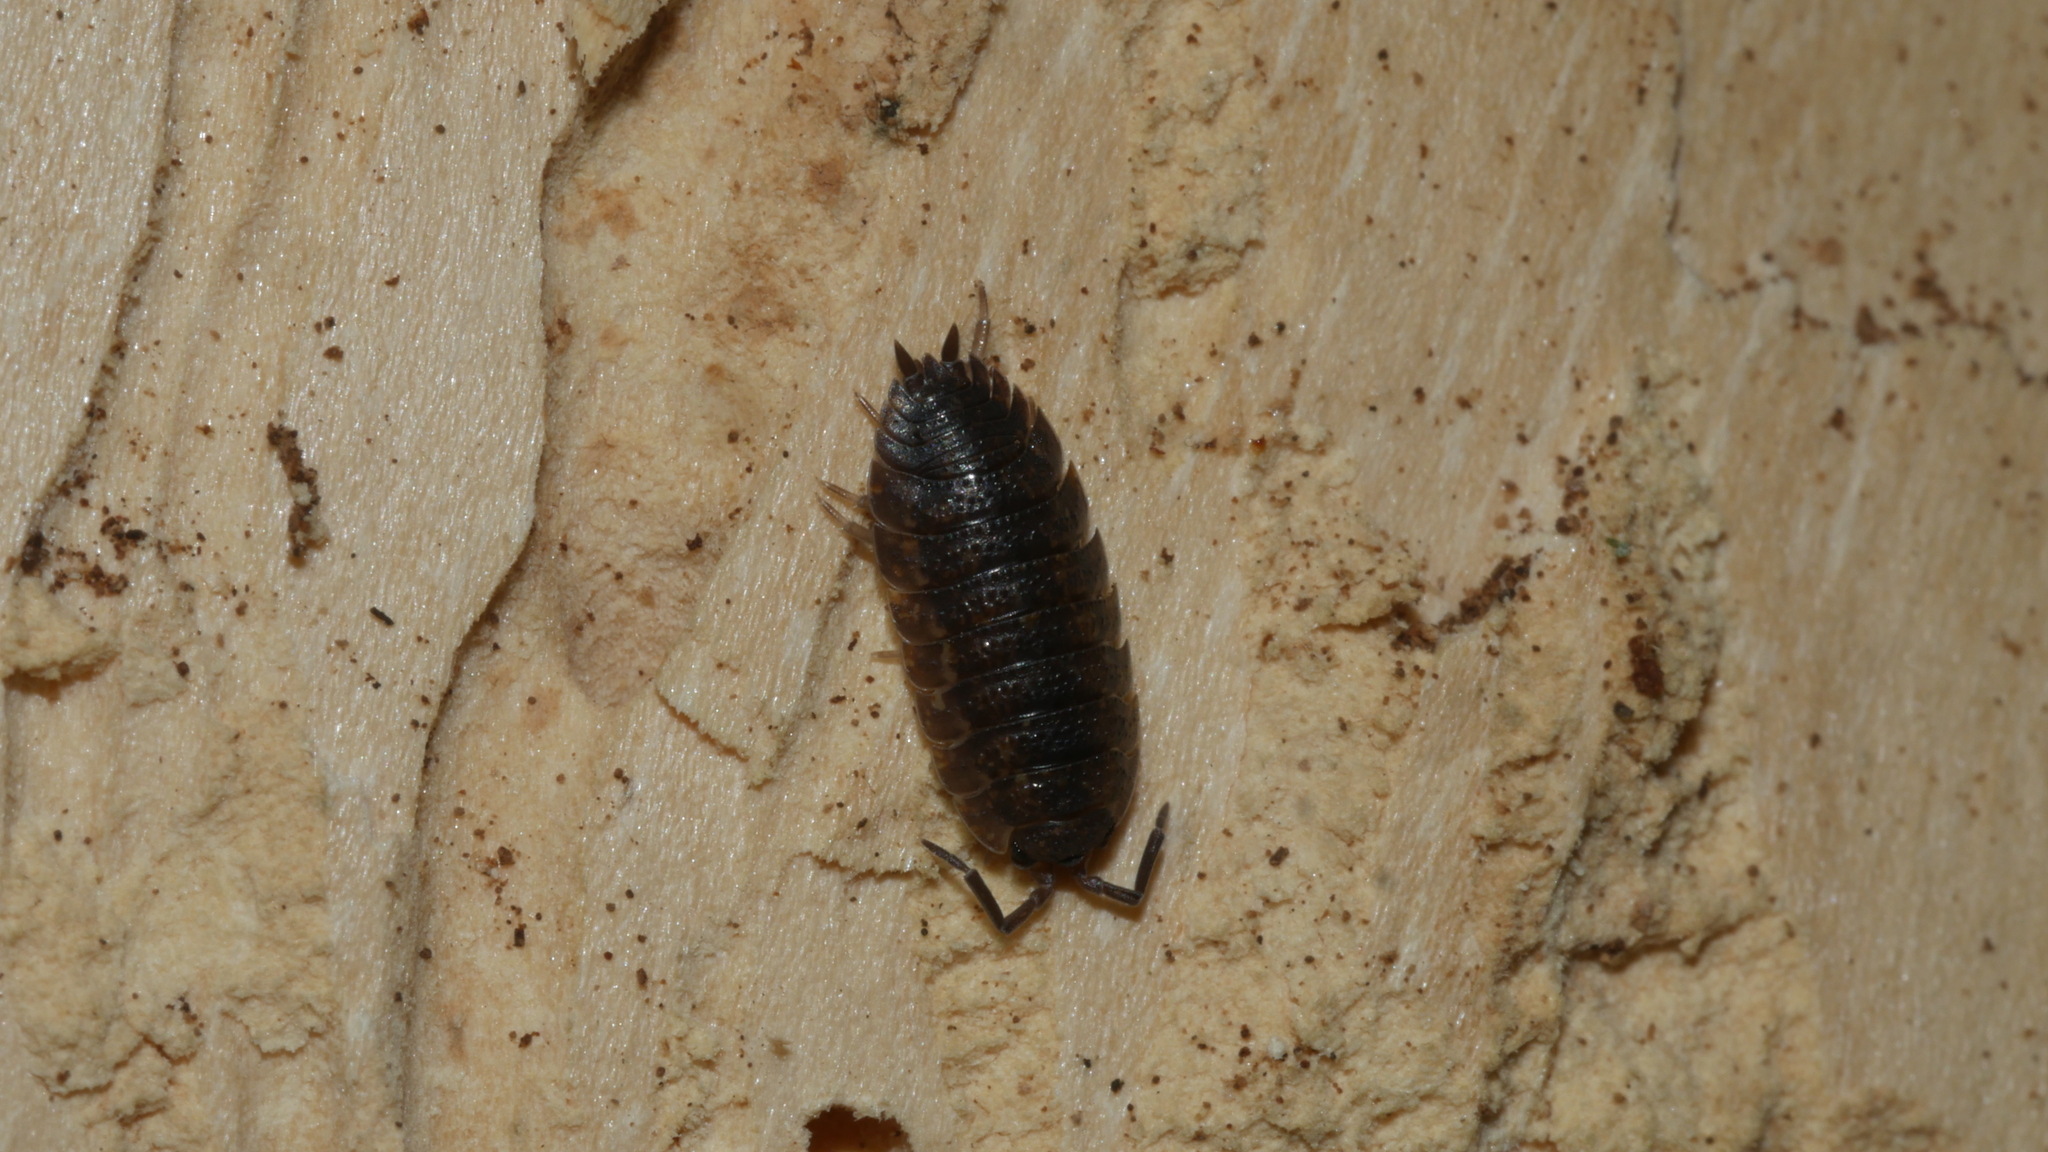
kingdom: Animalia
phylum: Arthropoda
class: Malacostraca
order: Isopoda
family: Porcellionidae
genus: Porcellio
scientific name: Porcellio scaber
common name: Common rough woodlouse
